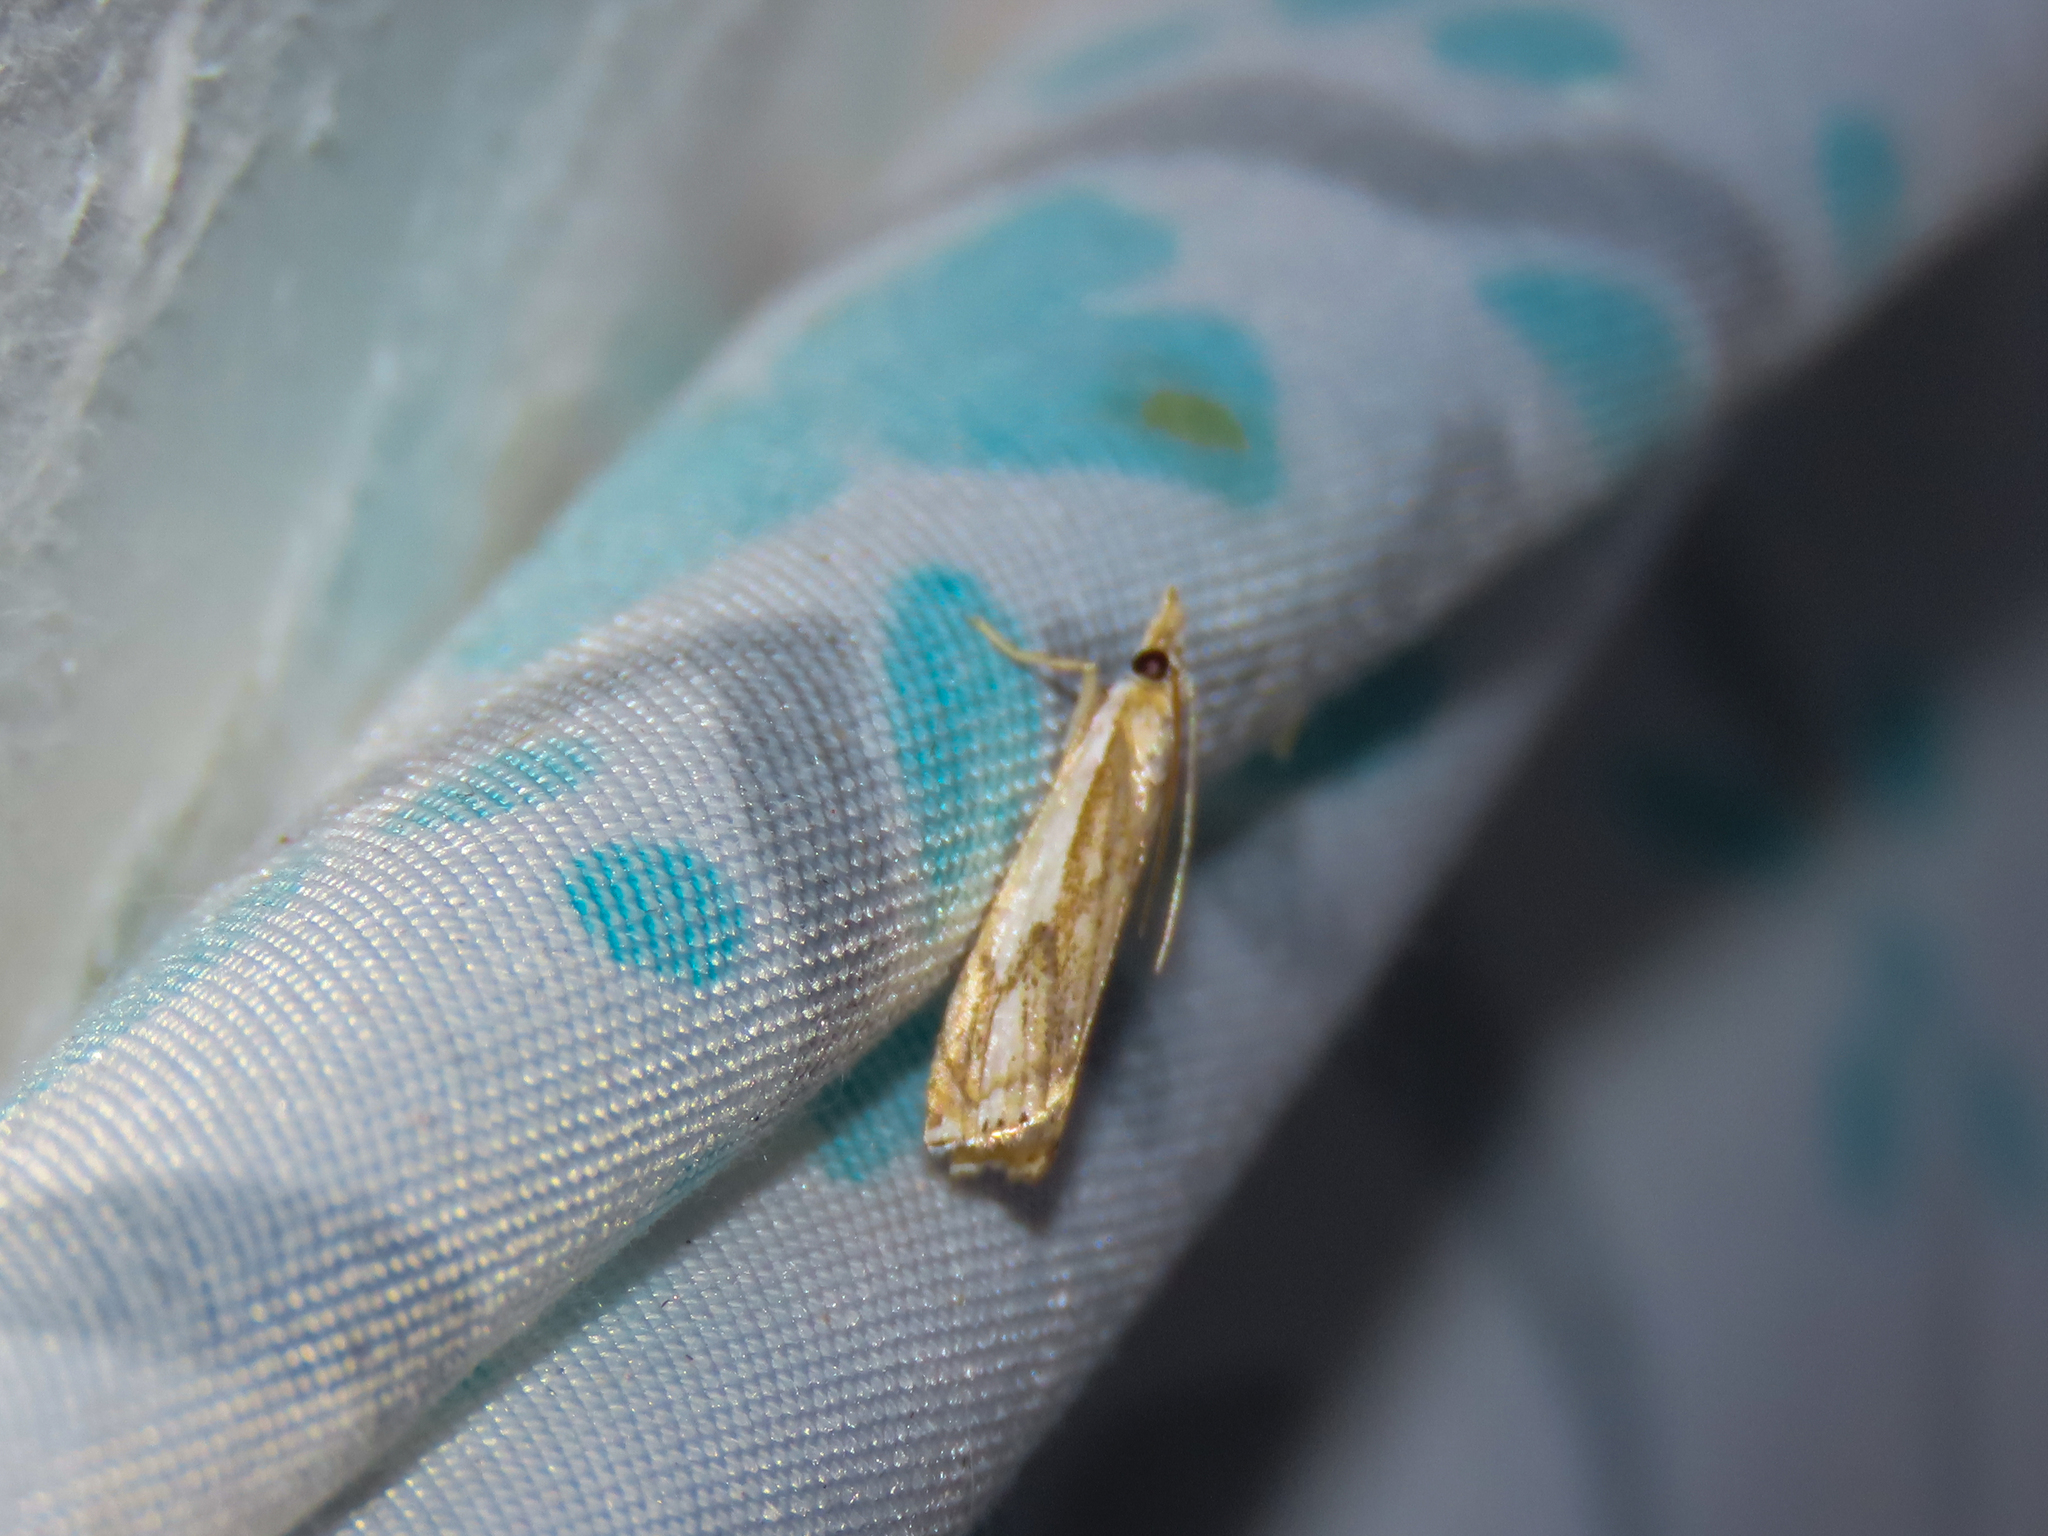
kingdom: Animalia
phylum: Arthropoda
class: Insecta
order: Lepidoptera
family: Crambidae
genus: Crambus
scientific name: Crambus agitatellus
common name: Double-banded grass-veneer
